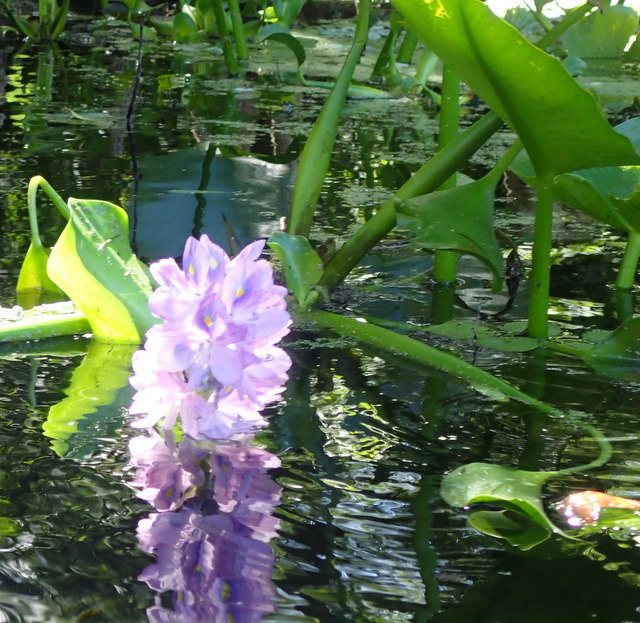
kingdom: Plantae
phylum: Tracheophyta
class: Liliopsida
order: Commelinales
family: Pontederiaceae
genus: Pontederia
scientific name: Pontederia crassipes
